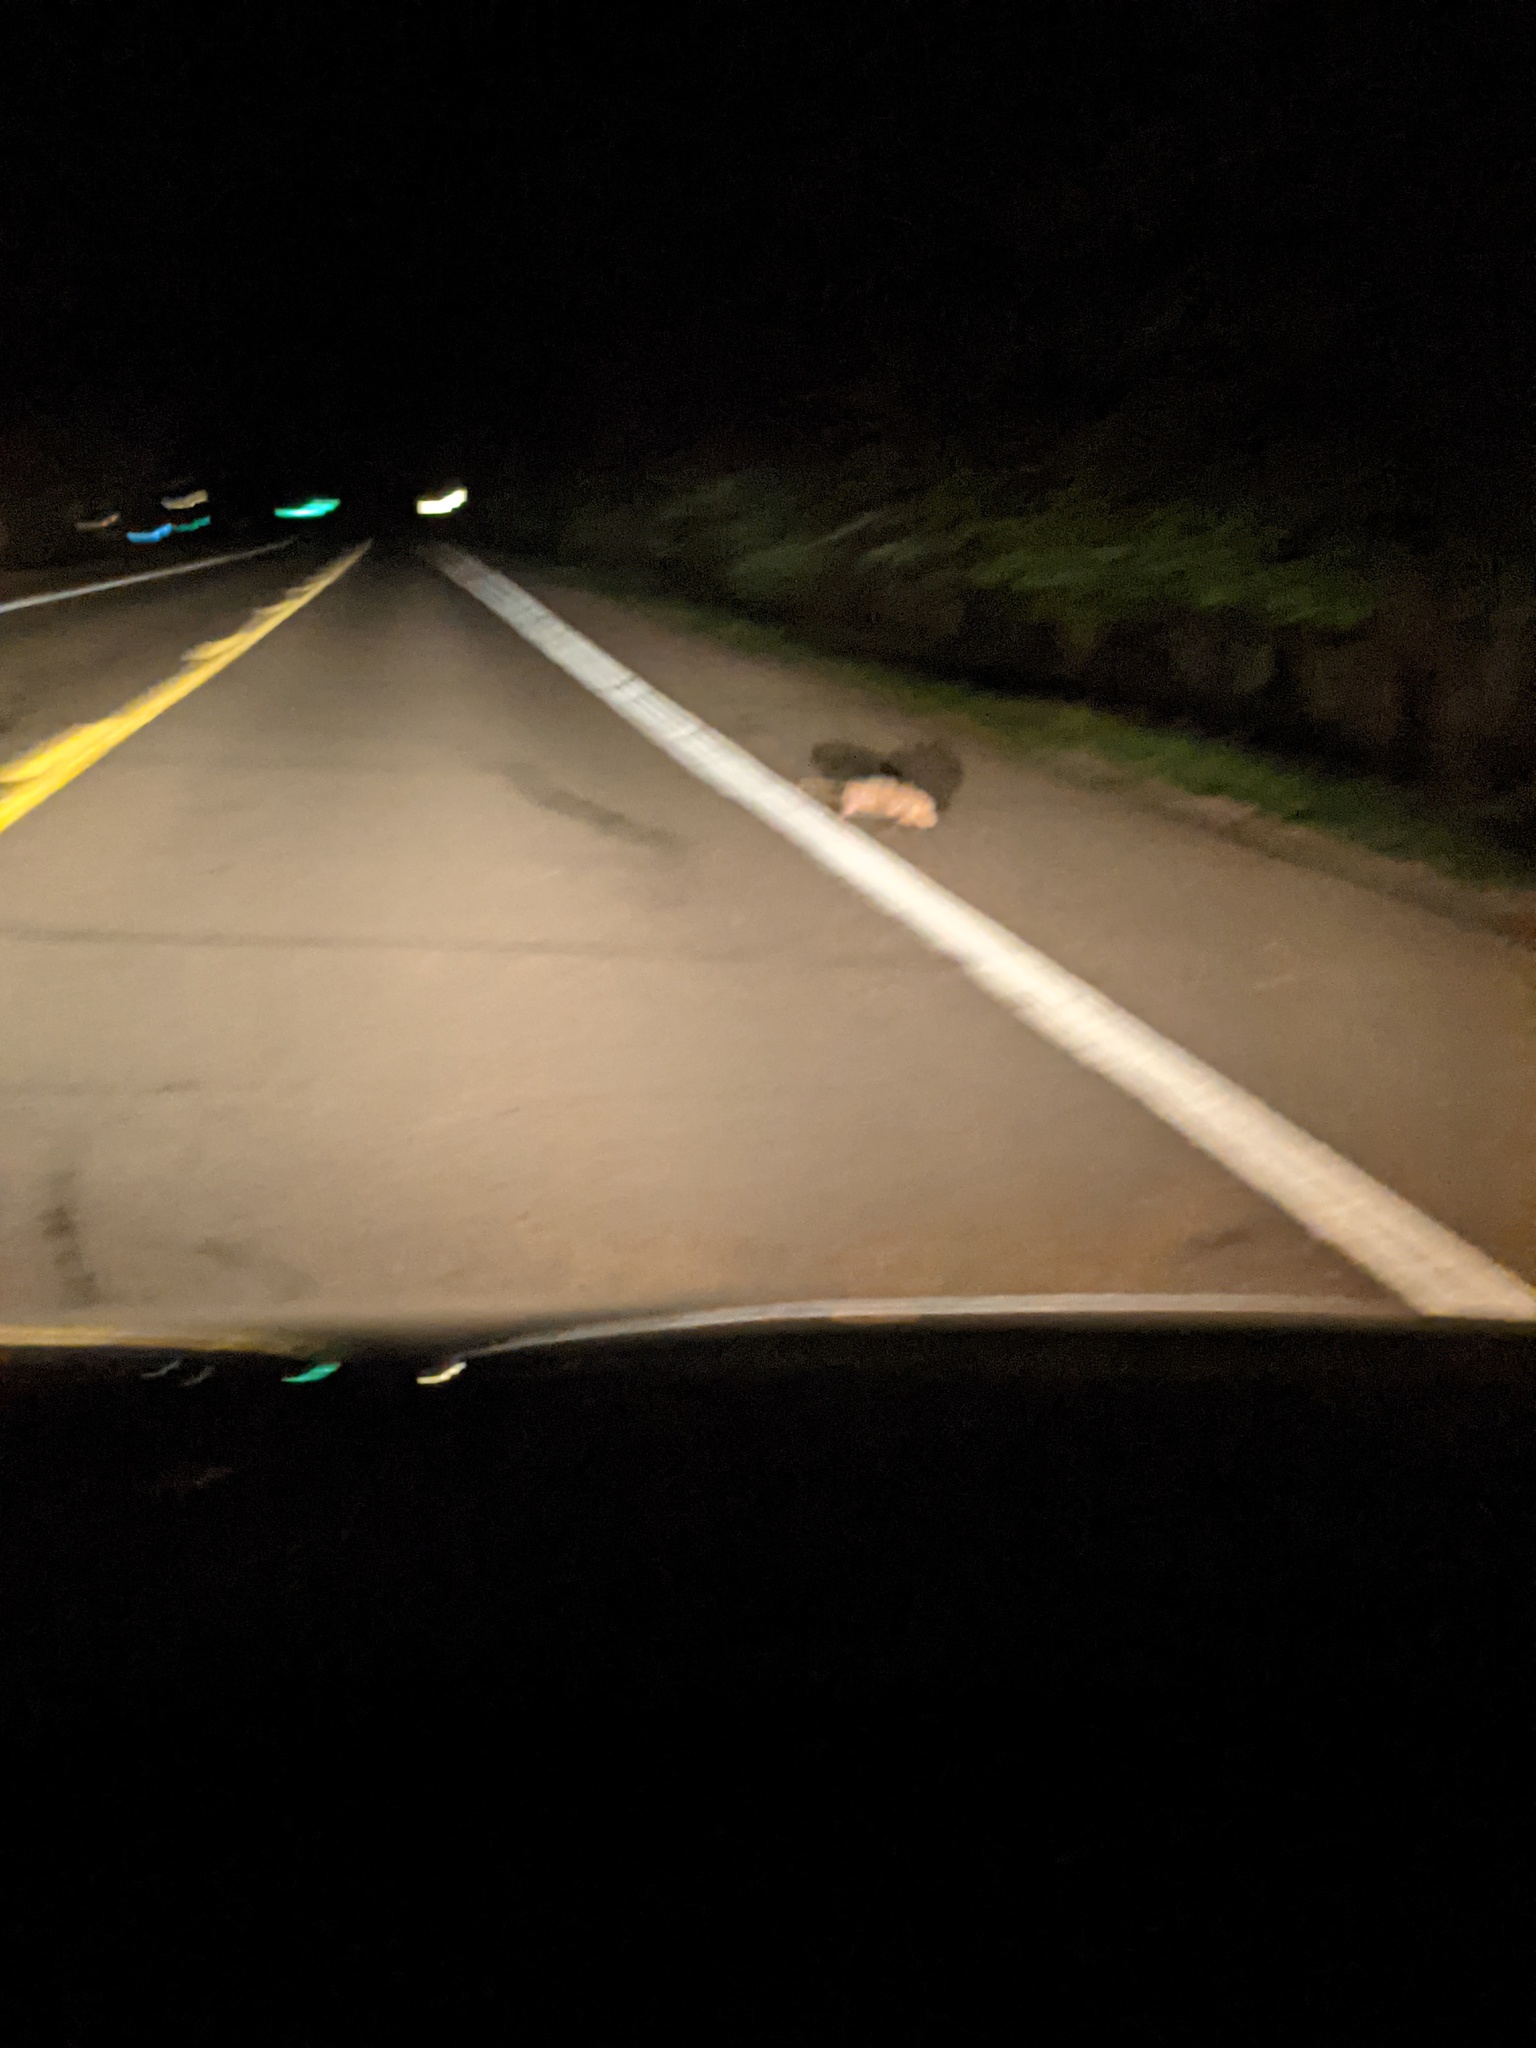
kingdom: Animalia
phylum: Chordata
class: Mammalia
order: Didelphimorphia
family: Didelphidae
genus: Didelphis
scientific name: Didelphis virginiana
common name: Virginia opossum
